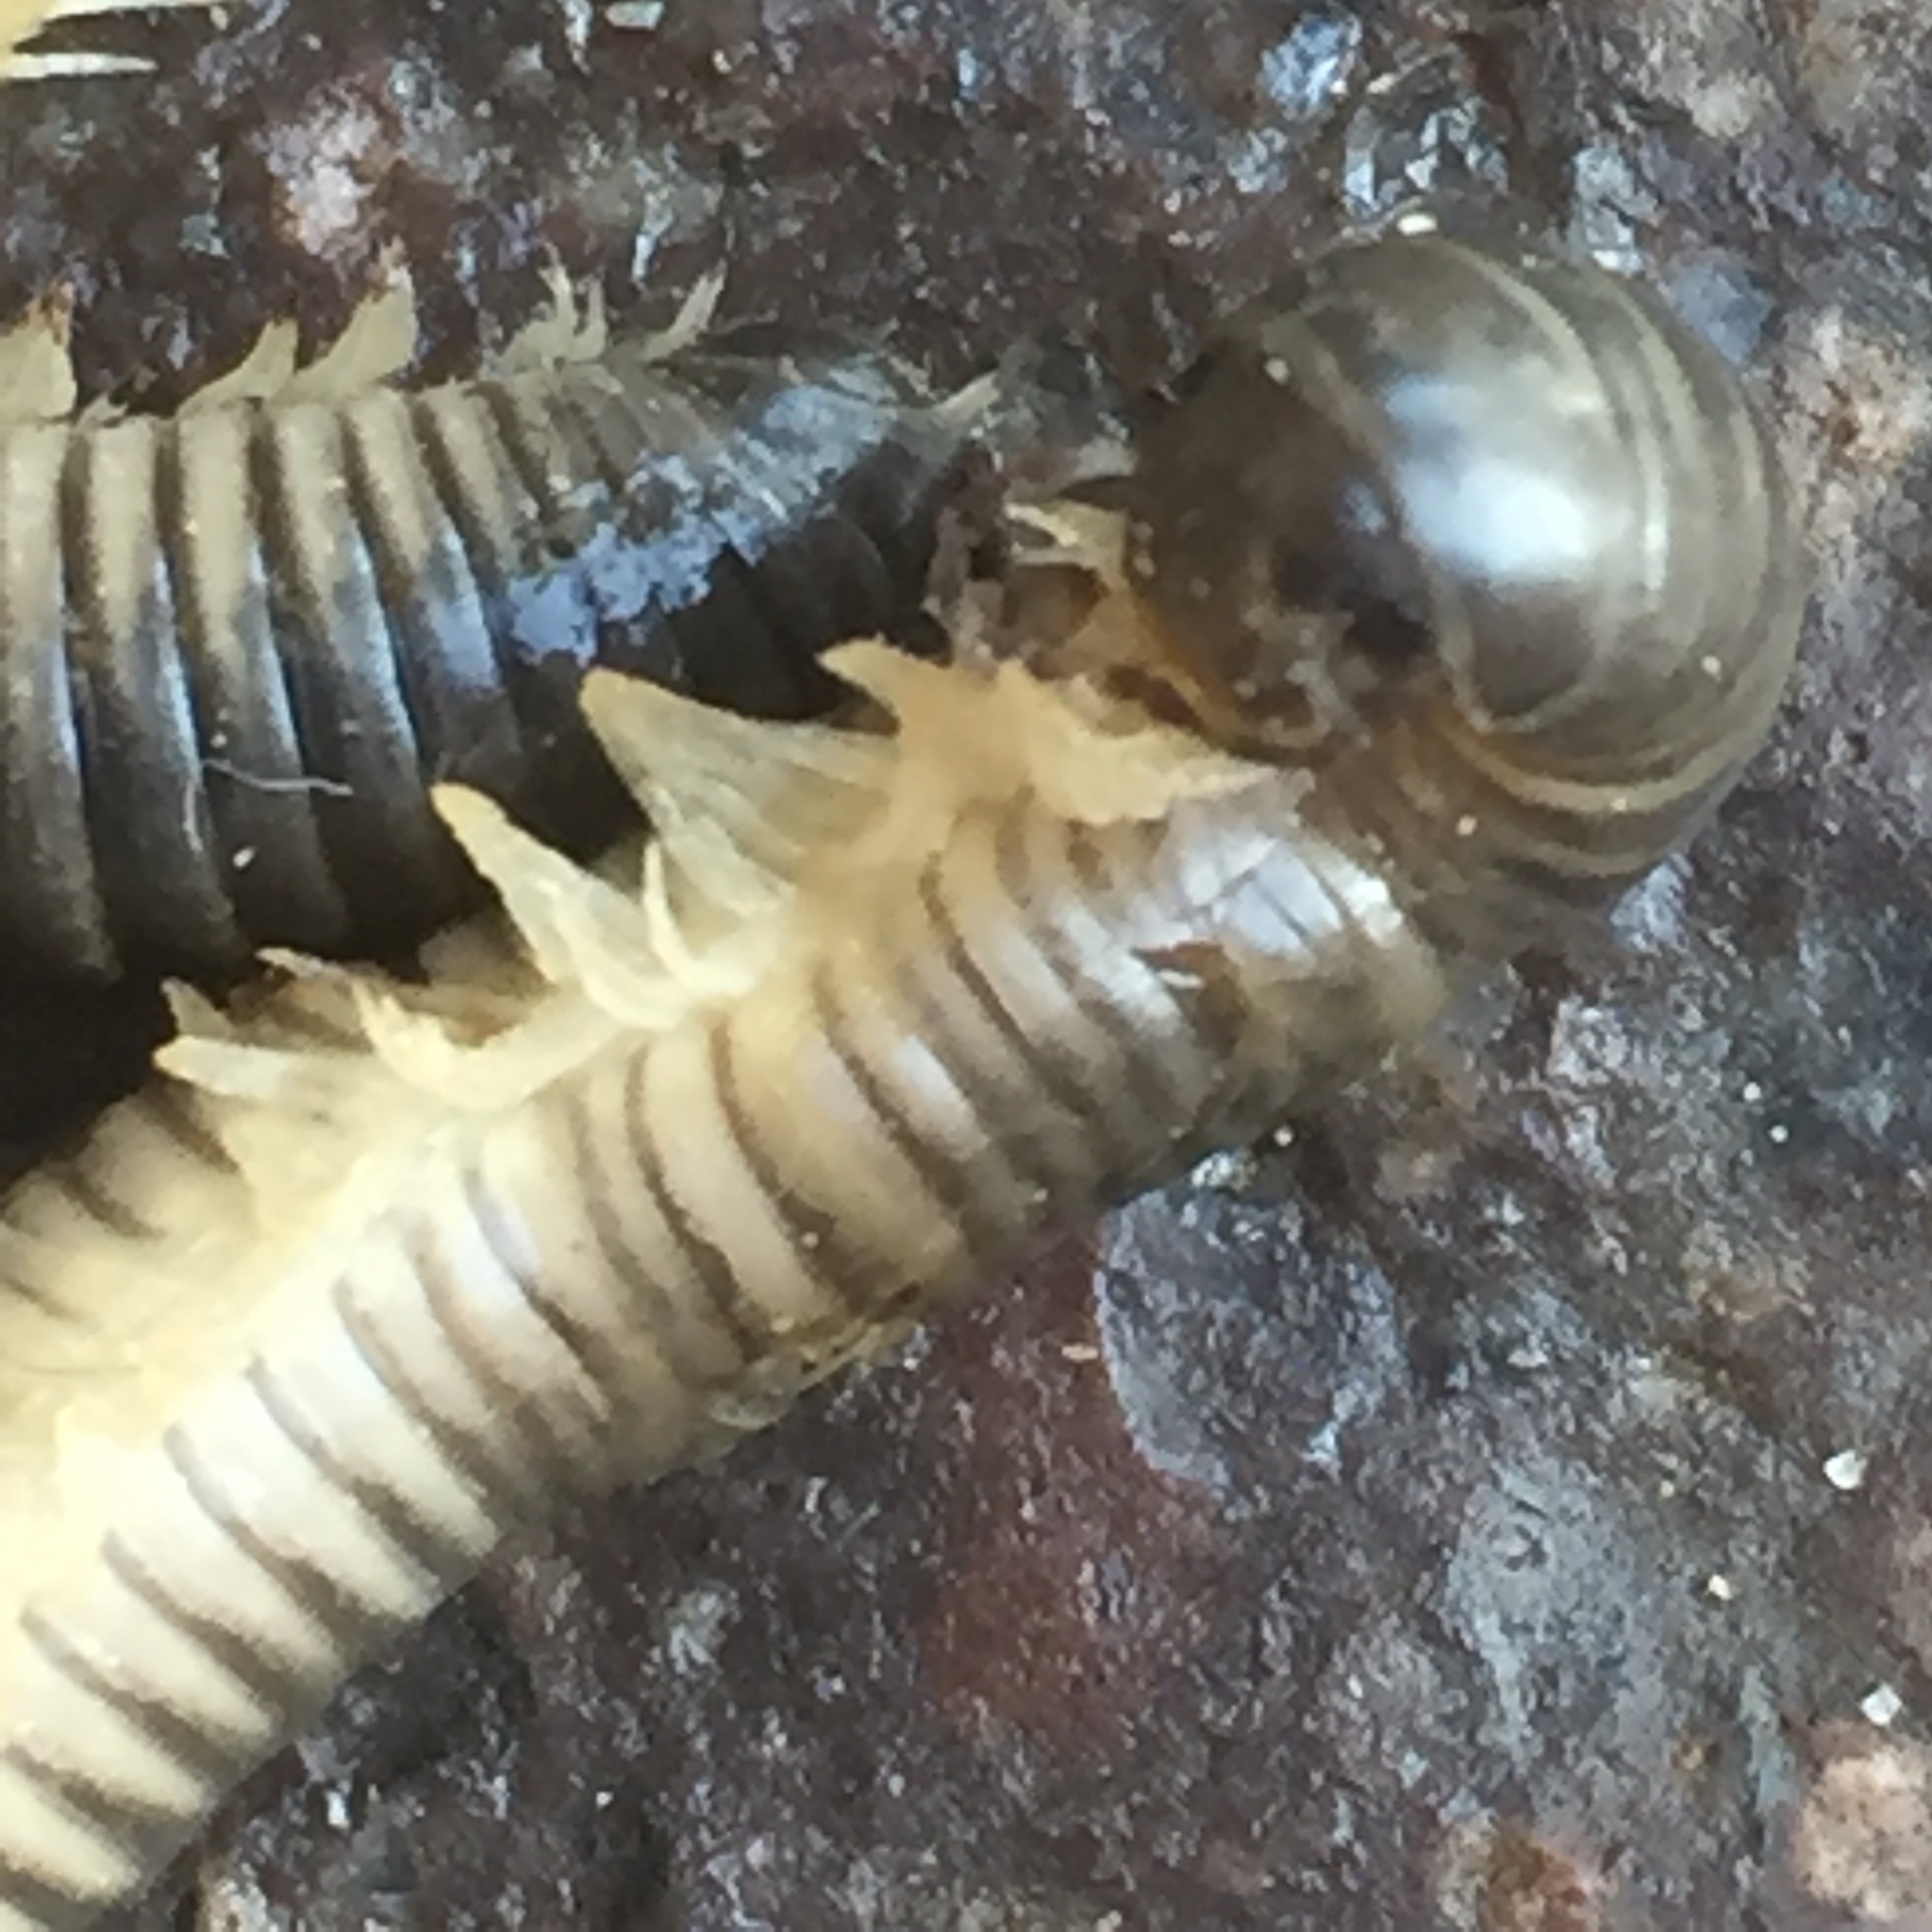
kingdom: Animalia
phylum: Arthropoda
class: Diplopoda
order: Julida
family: Julidae
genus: Ommatoiulus
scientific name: Ommatoiulus oxypygus
